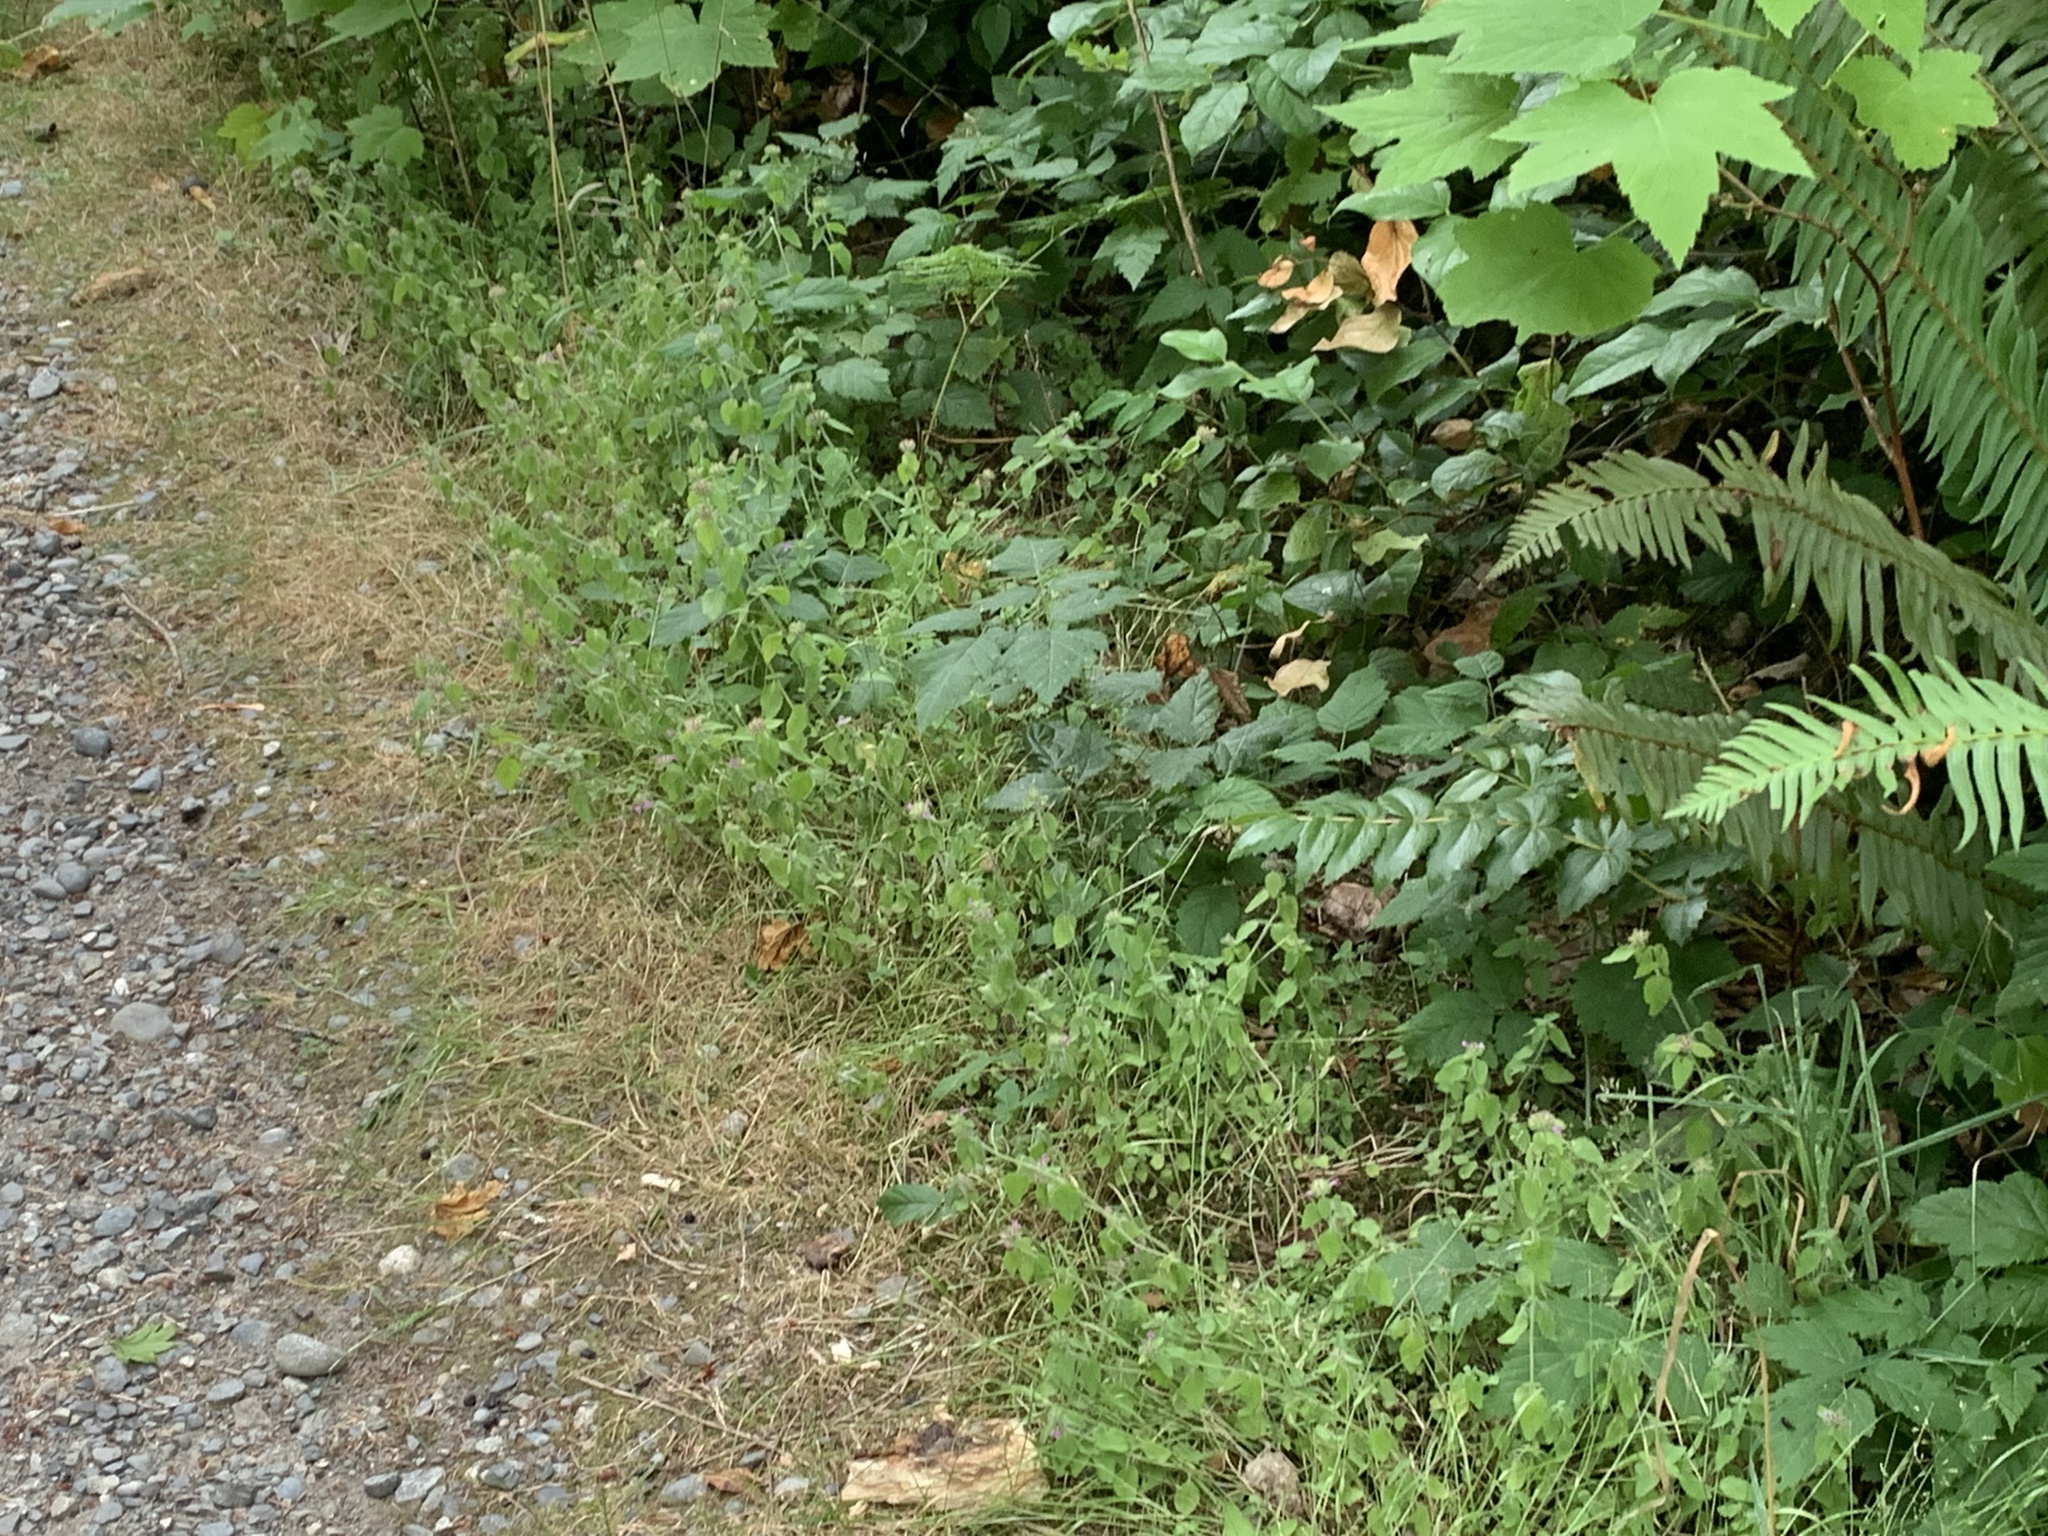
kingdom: Plantae
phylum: Tracheophyta
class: Magnoliopsida
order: Lamiales
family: Lamiaceae
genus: Clinopodium
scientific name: Clinopodium vulgare
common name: Wild basil
